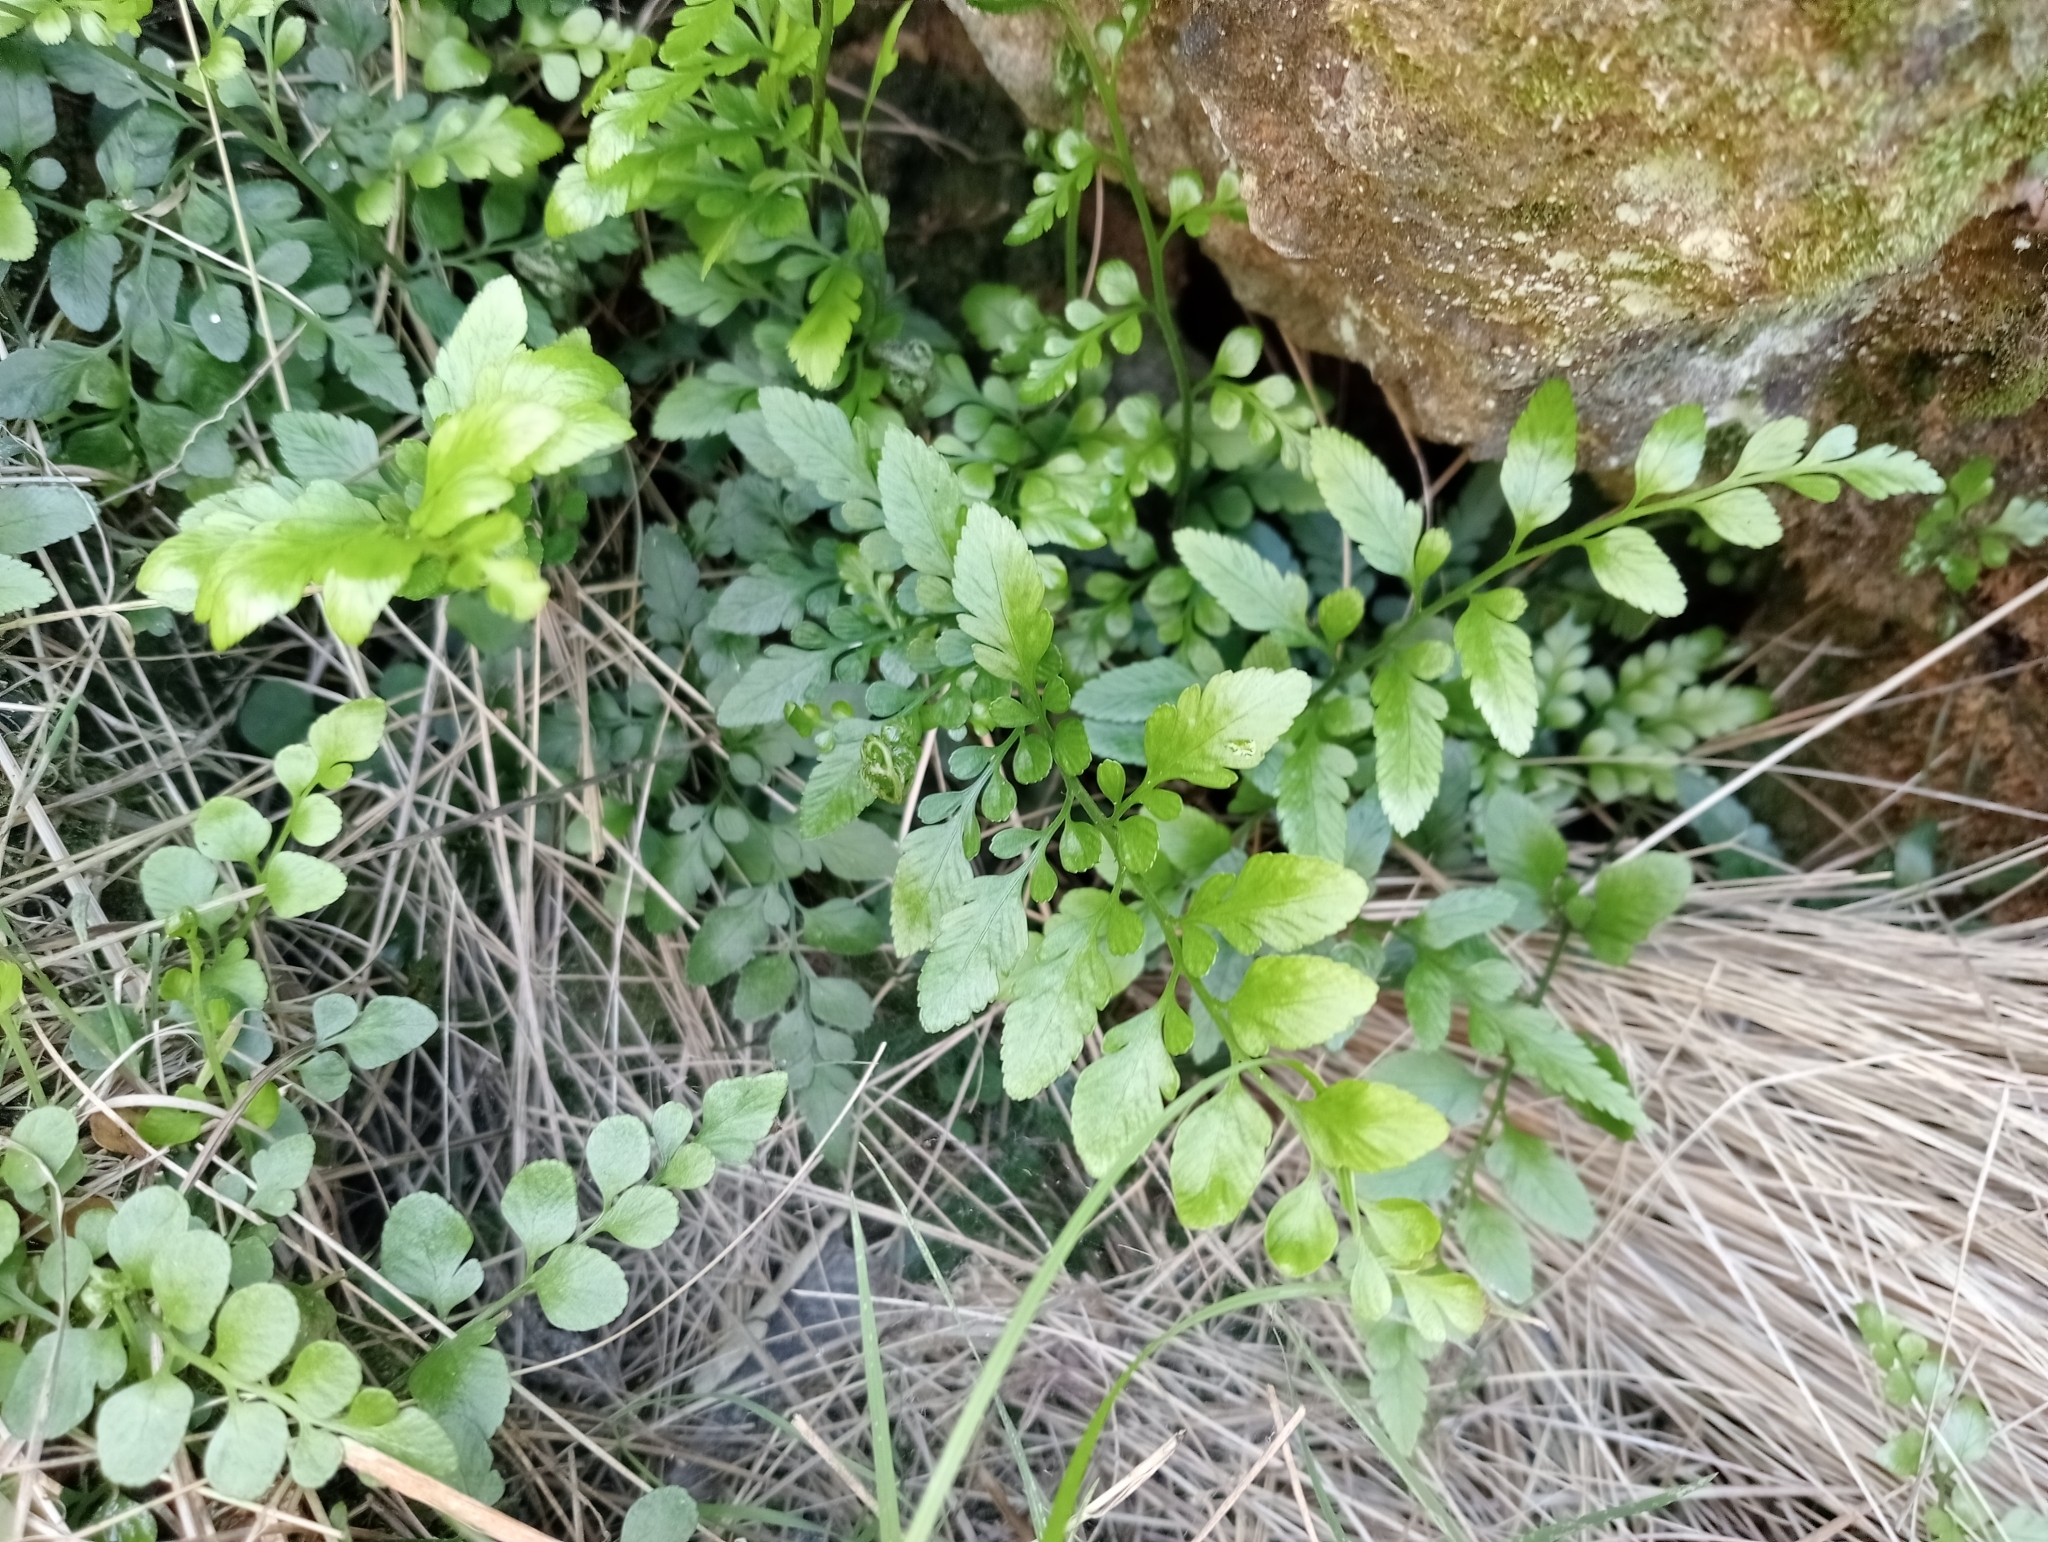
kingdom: Plantae
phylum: Tracheophyta
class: Polypodiopsida
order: Polypodiales
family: Aspleniaceae
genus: Asplenium
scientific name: Asplenium lyallii
